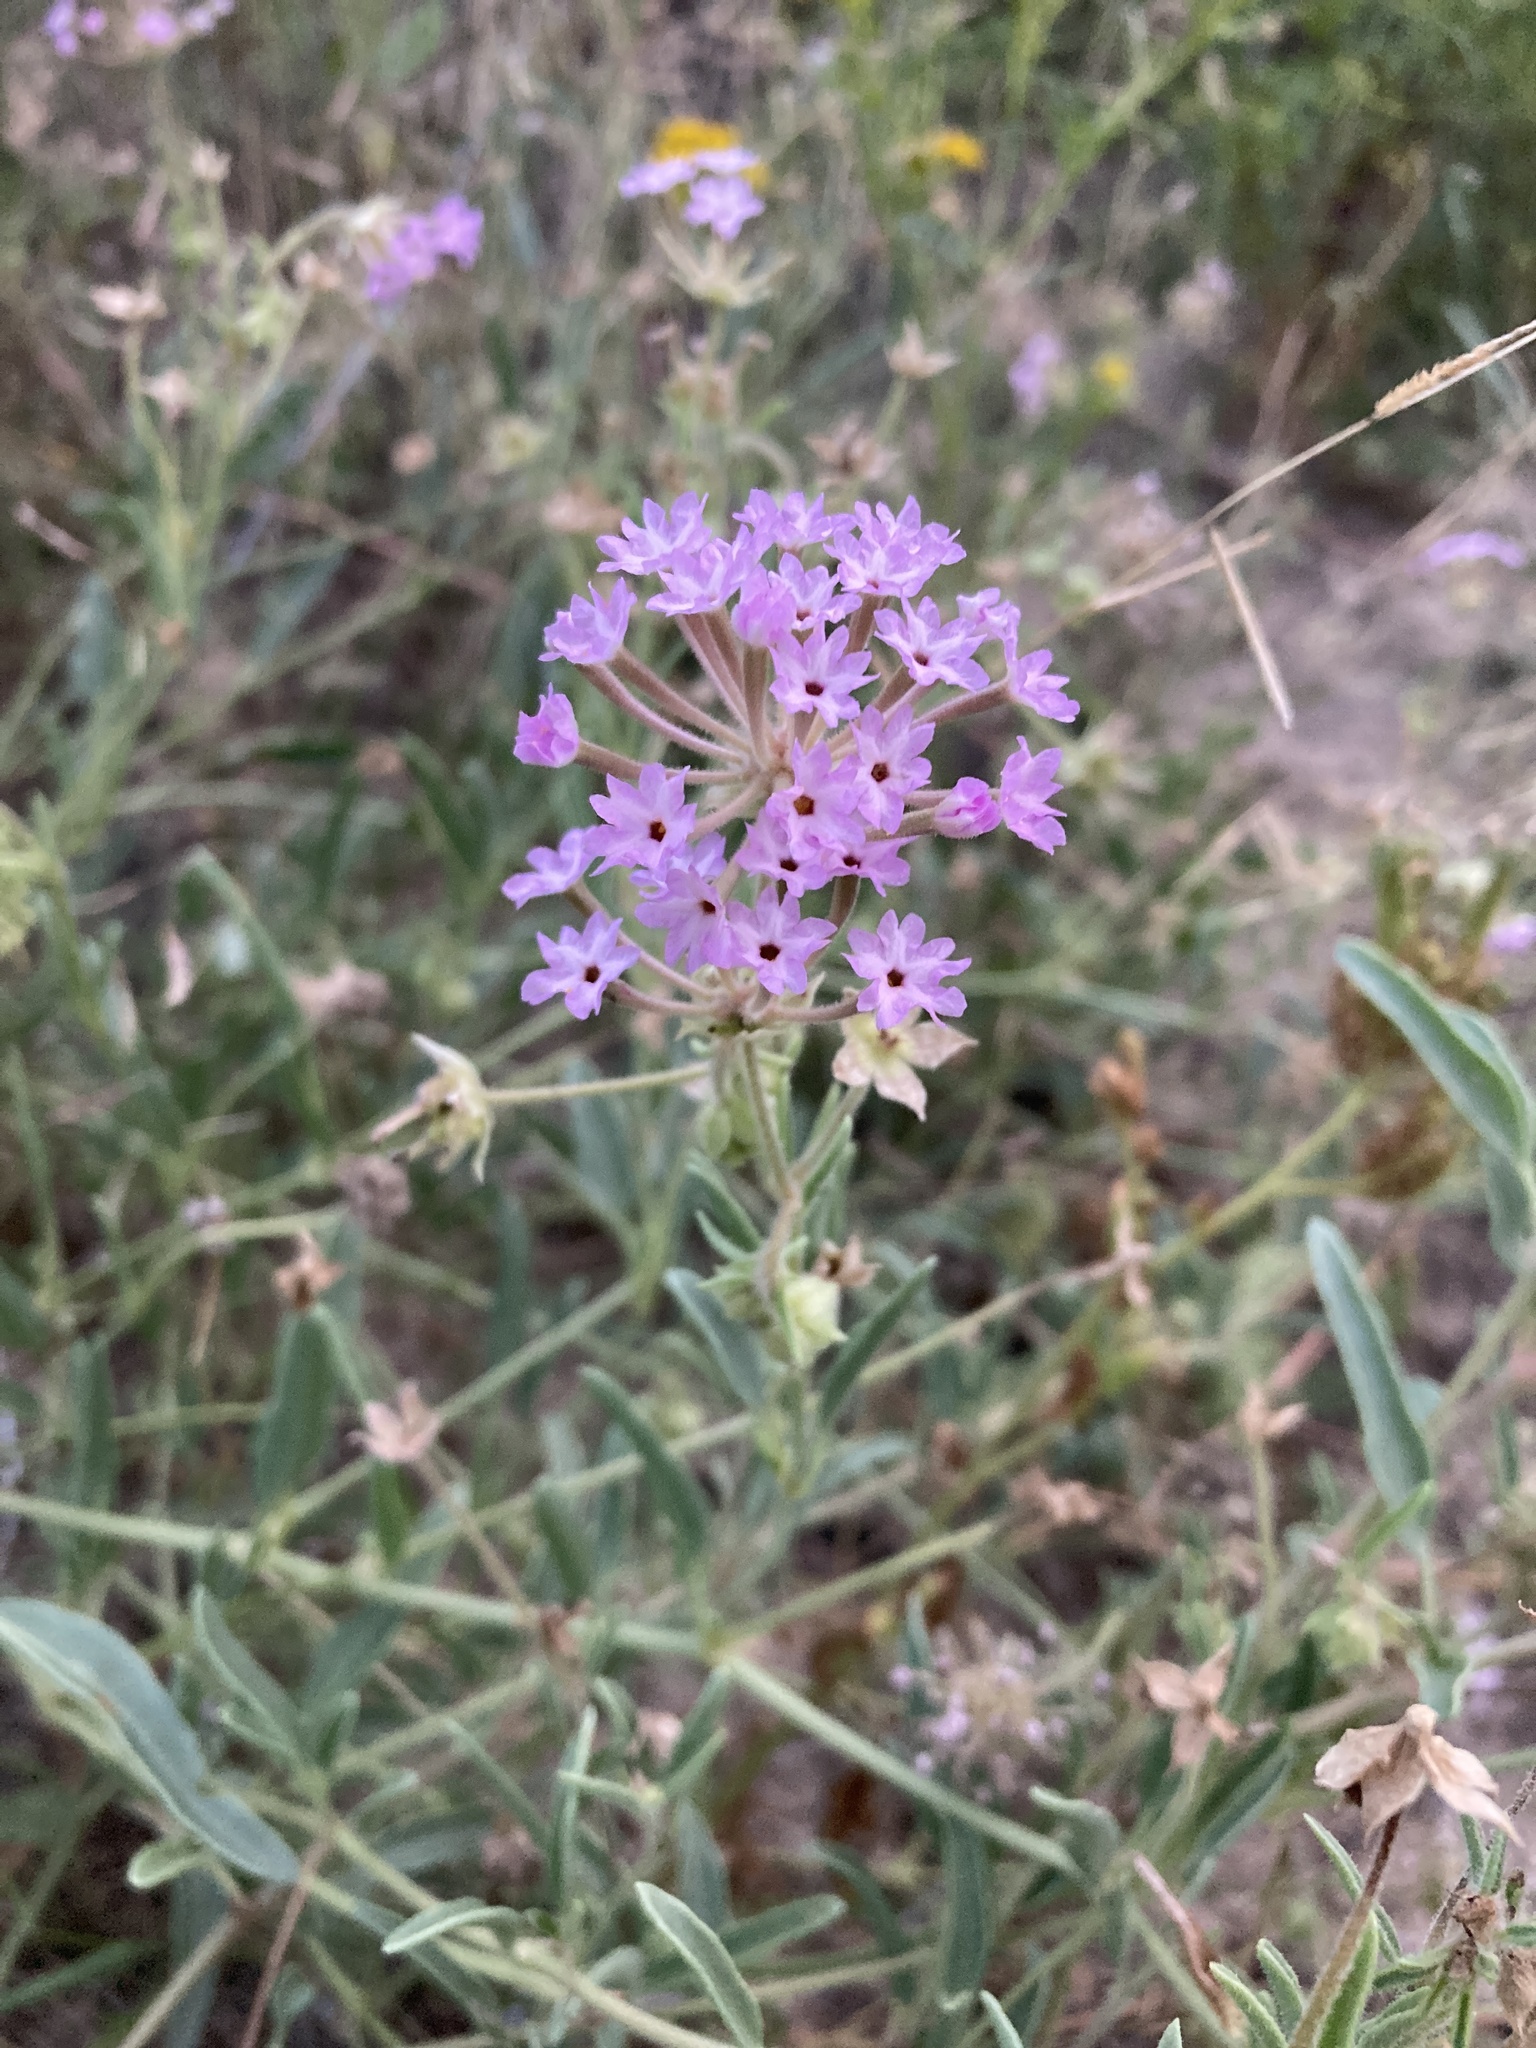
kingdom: Plantae
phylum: Tracheophyta
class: Magnoliopsida
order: Caryophyllales
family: Nyctaginaceae
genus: Abronia
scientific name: Abronia carletonii
